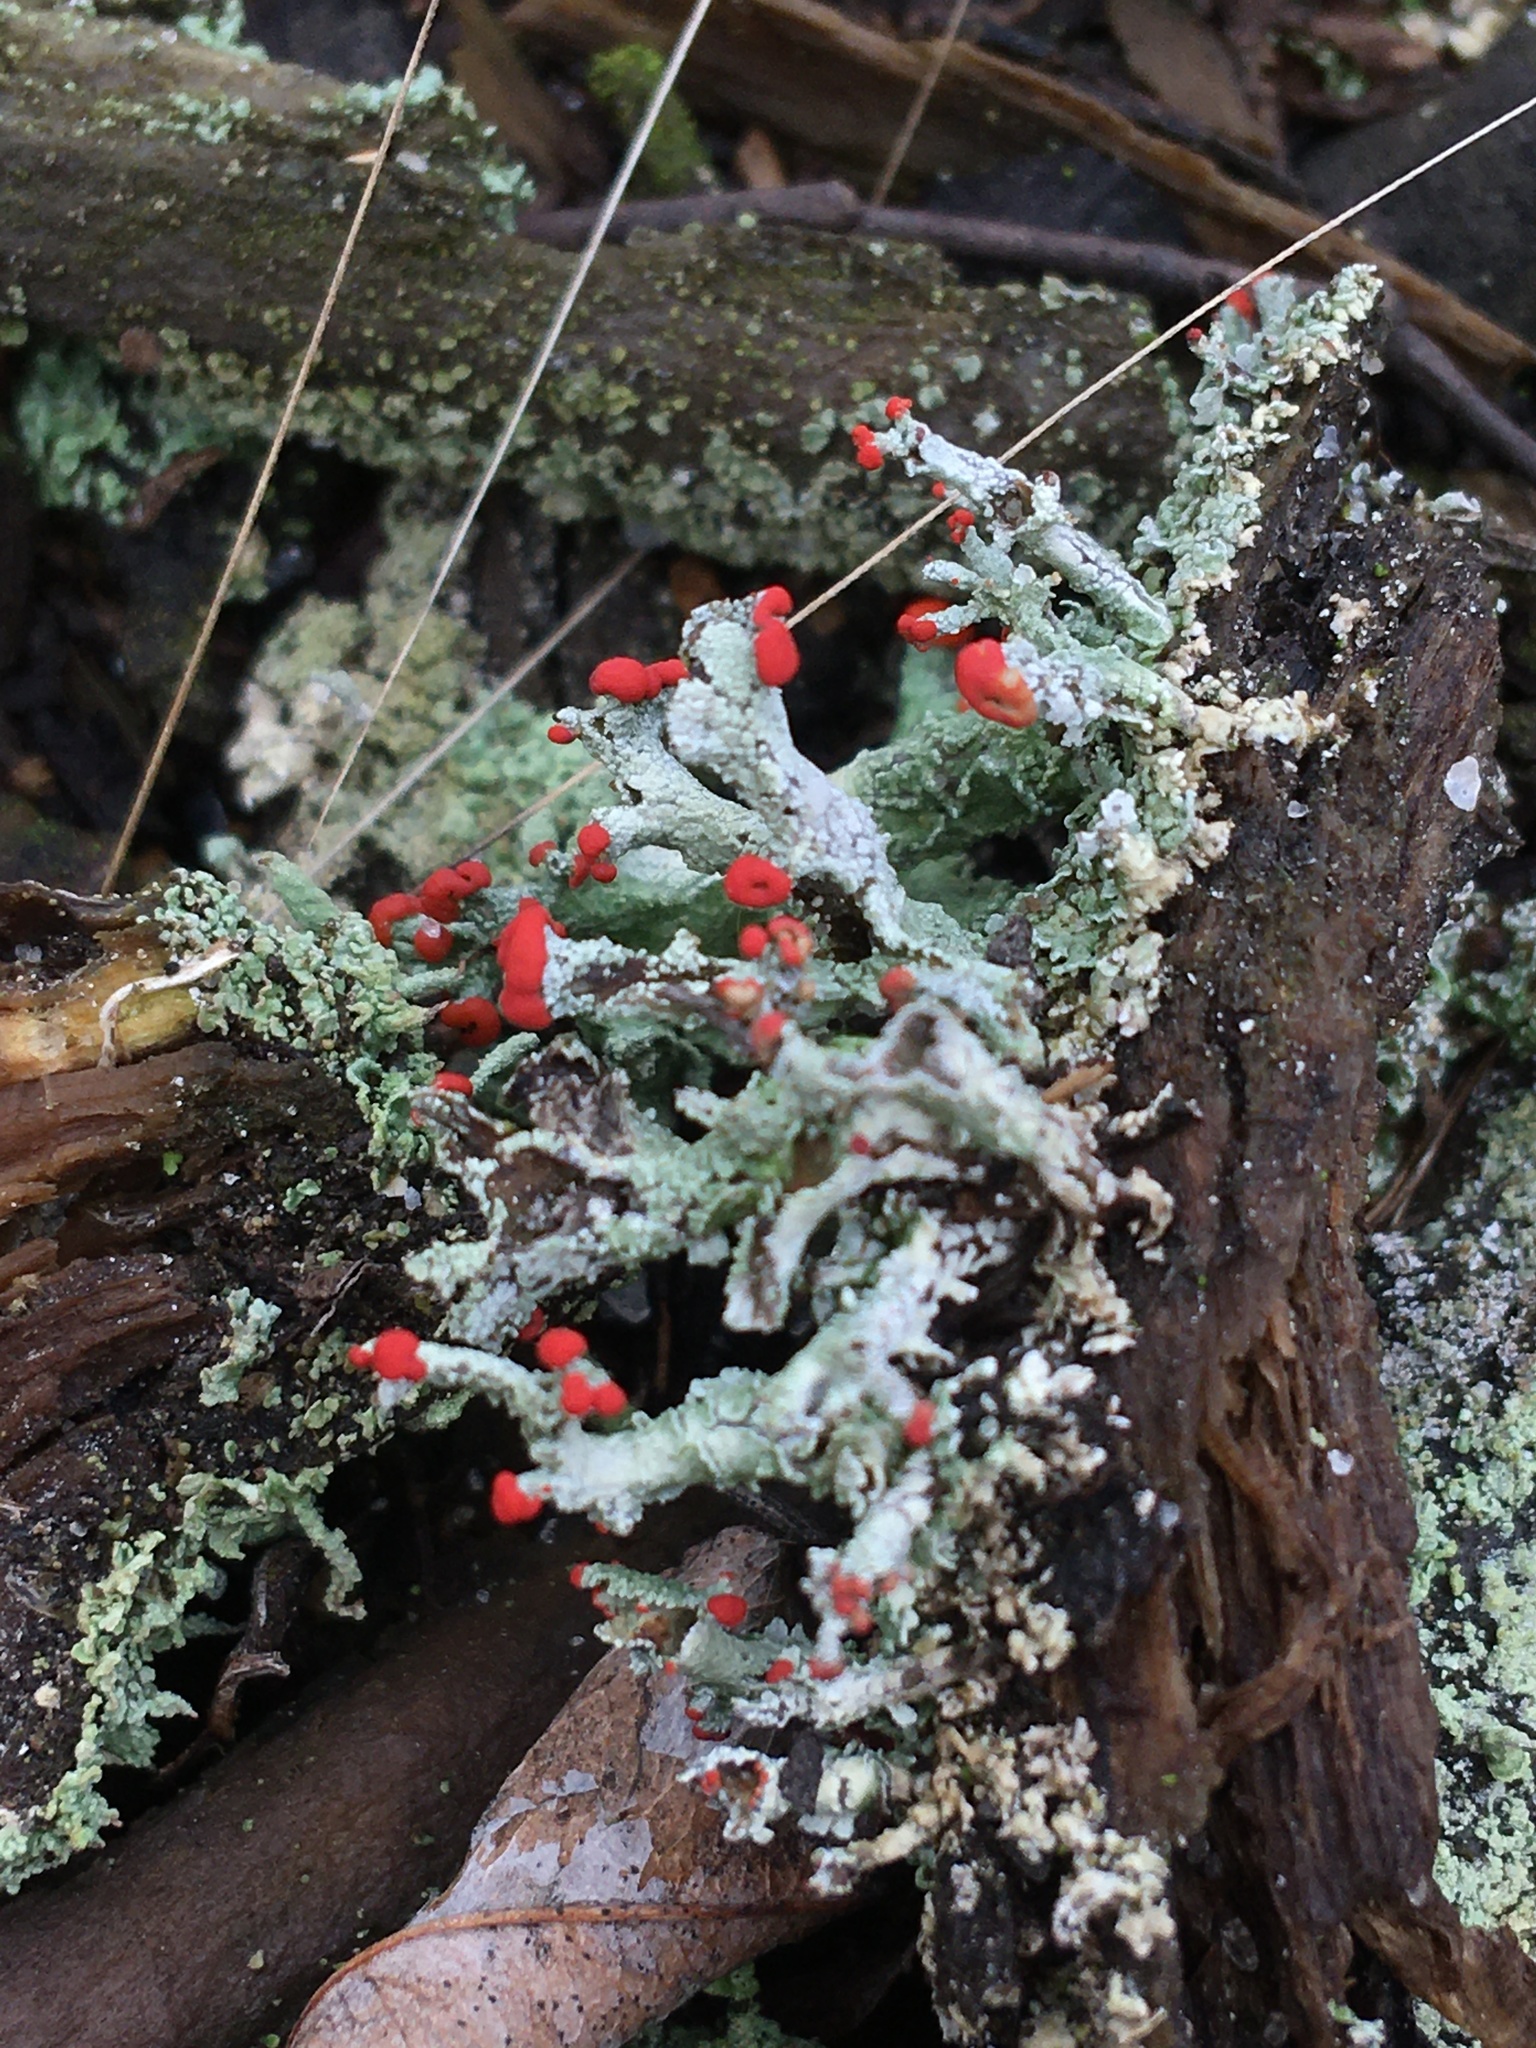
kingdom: Fungi
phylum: Ascomycota
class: Lecanoromycetes
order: Lecanorales
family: Cladoniaceae
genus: Cladonia
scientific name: Cladonia cristatella
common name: British soldier lichen
